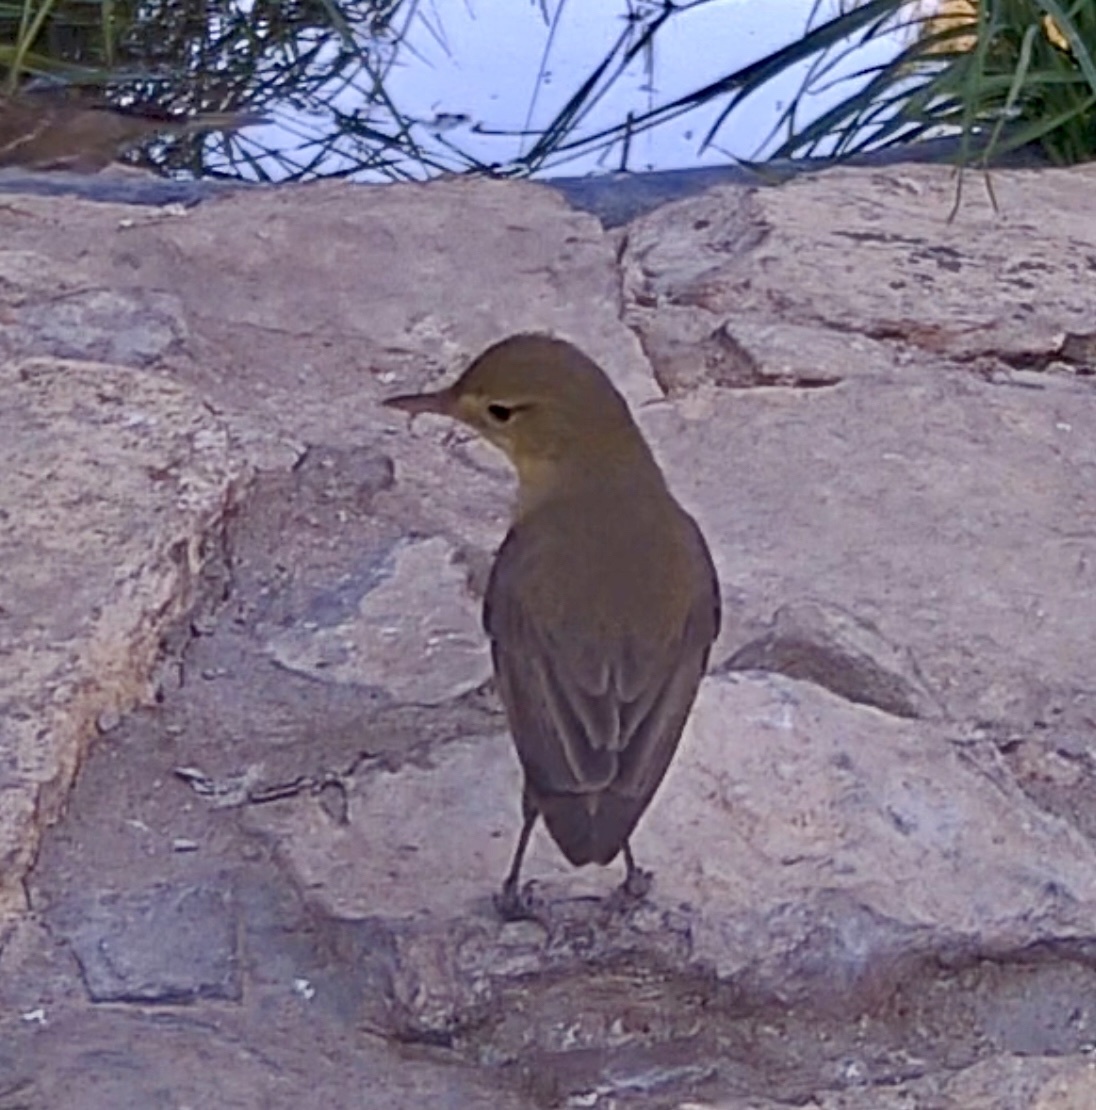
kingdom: Animalia
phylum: Chordata
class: Aves
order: Passeriformes
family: Acrocephalidae
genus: Hippolais
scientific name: Hippolais polyglotta
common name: Melodious warbler
